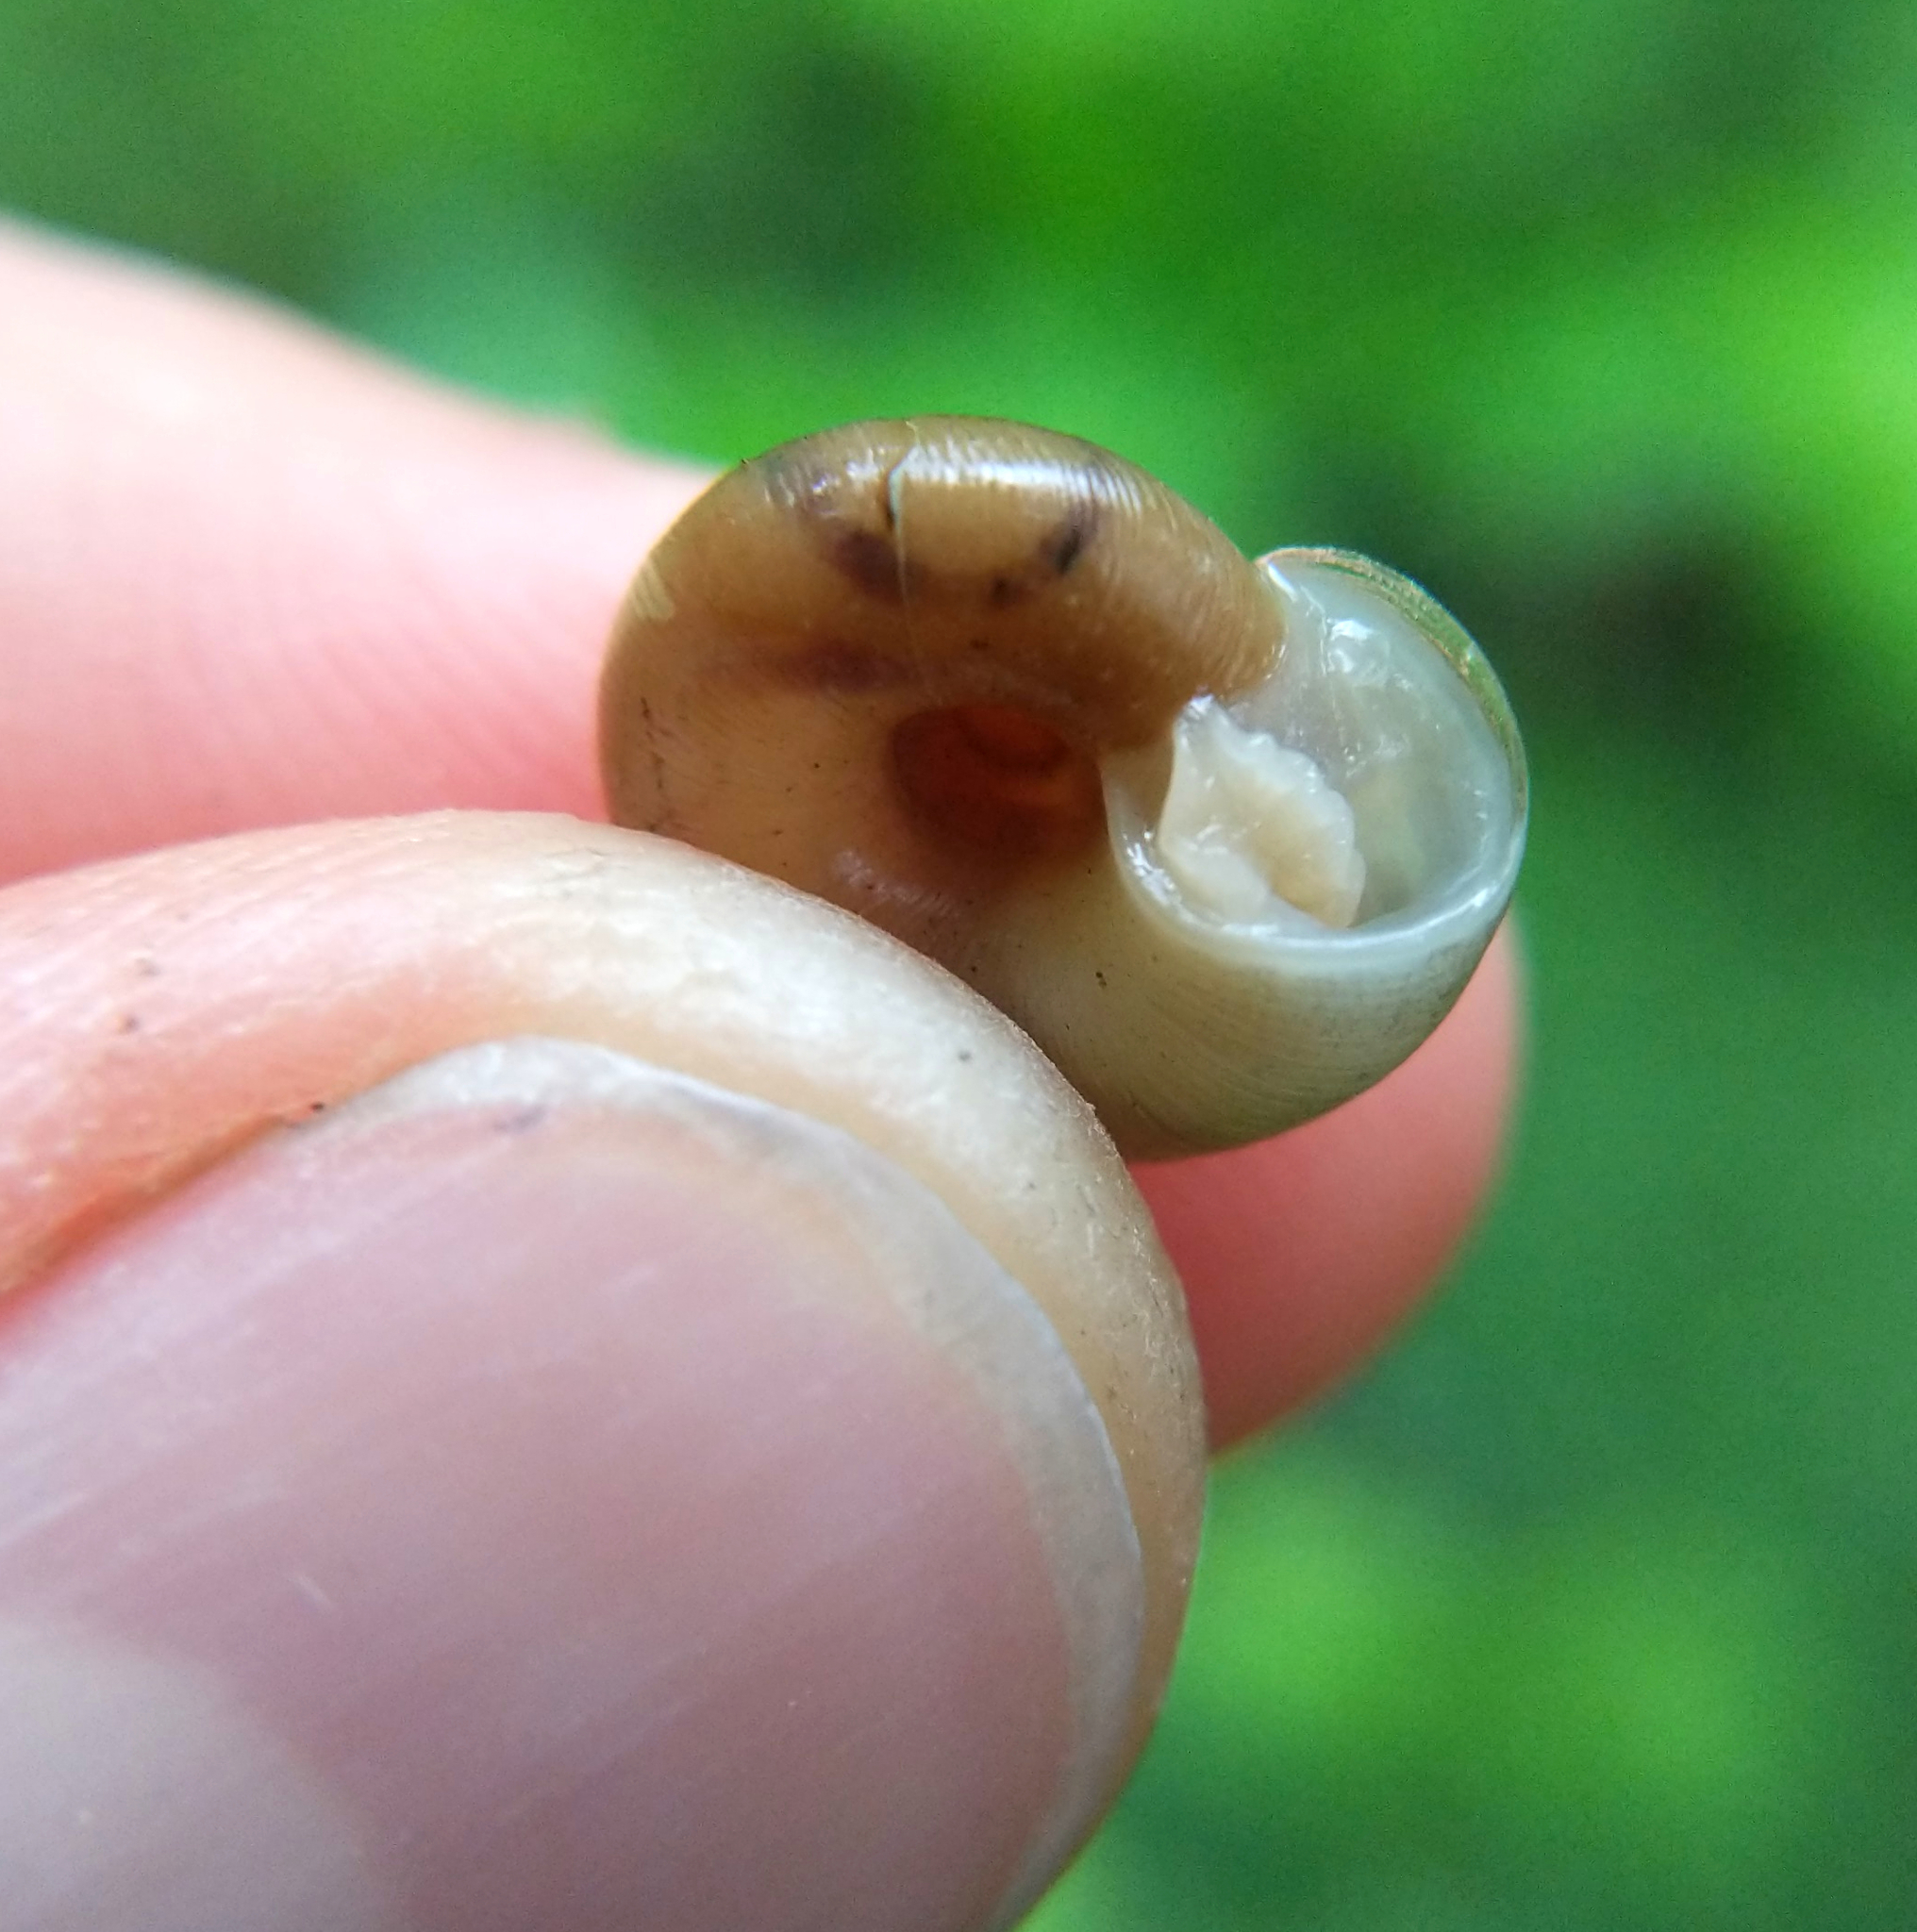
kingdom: Animalia
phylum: Mollusca
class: Gastropoda
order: Stylommatophora
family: Haplotrematidae
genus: Ancotrema
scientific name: Ancotrema sportella
